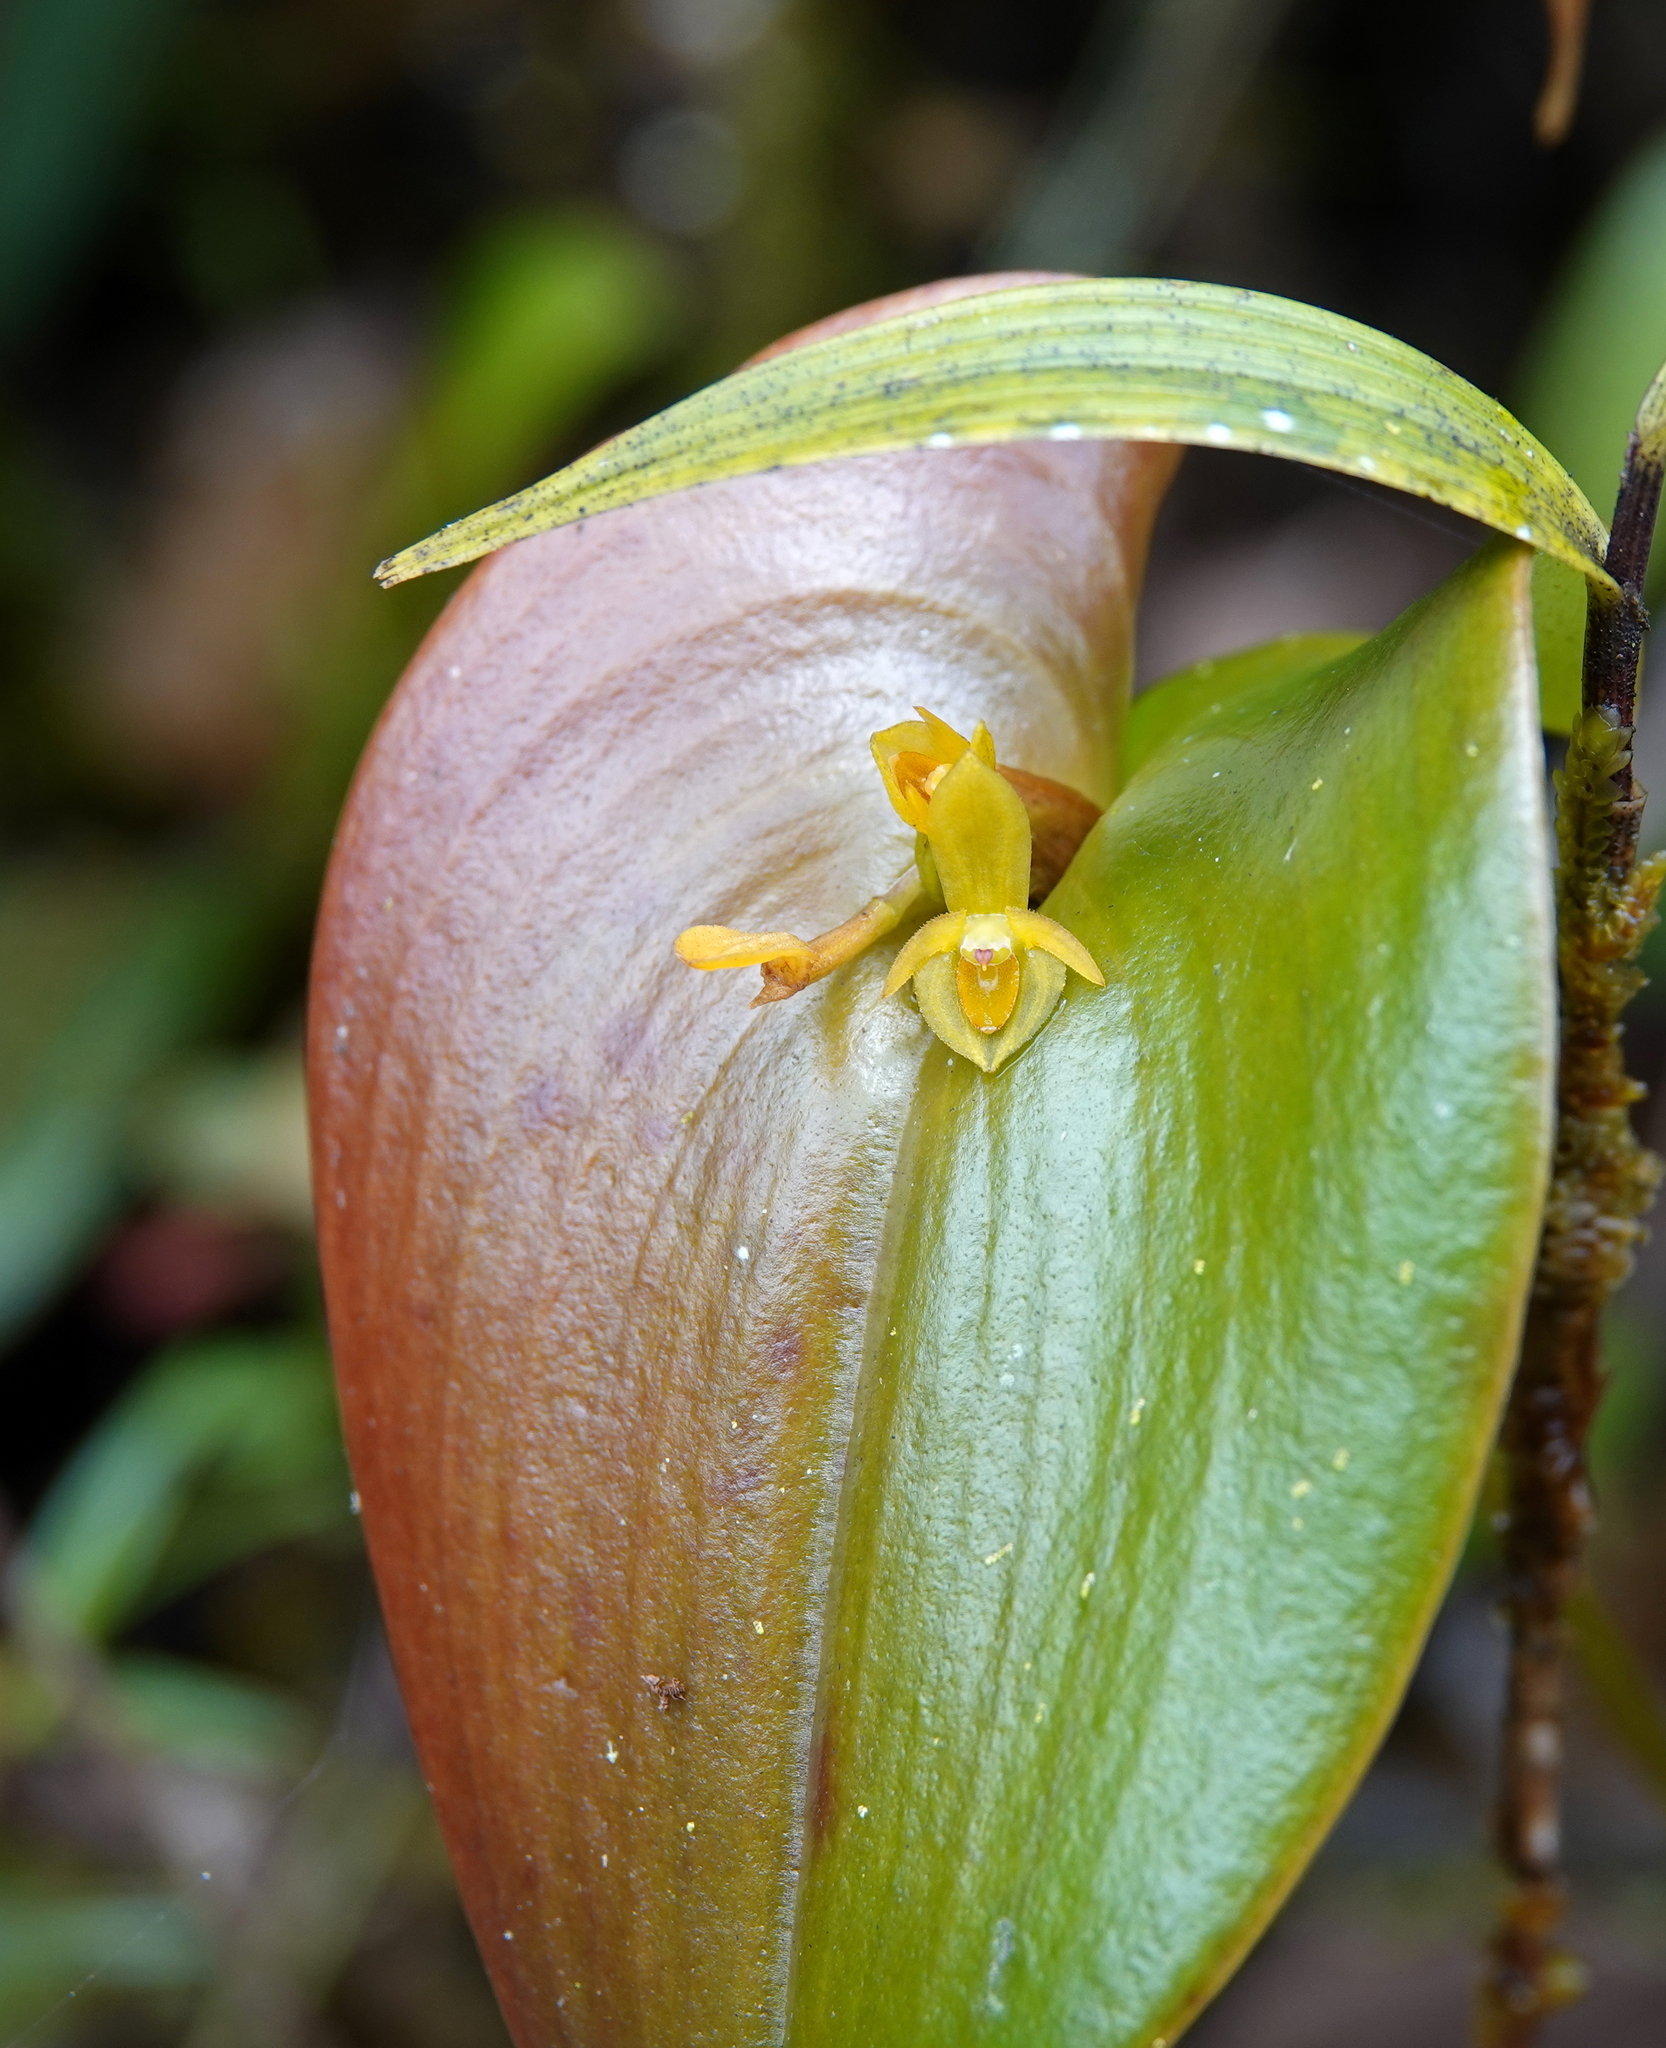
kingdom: Plantae
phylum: Tracheophyta
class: Liliopsida
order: Asparagales
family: Orchidaceae
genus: Pleurothallis
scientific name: Pleurothallis cordata
